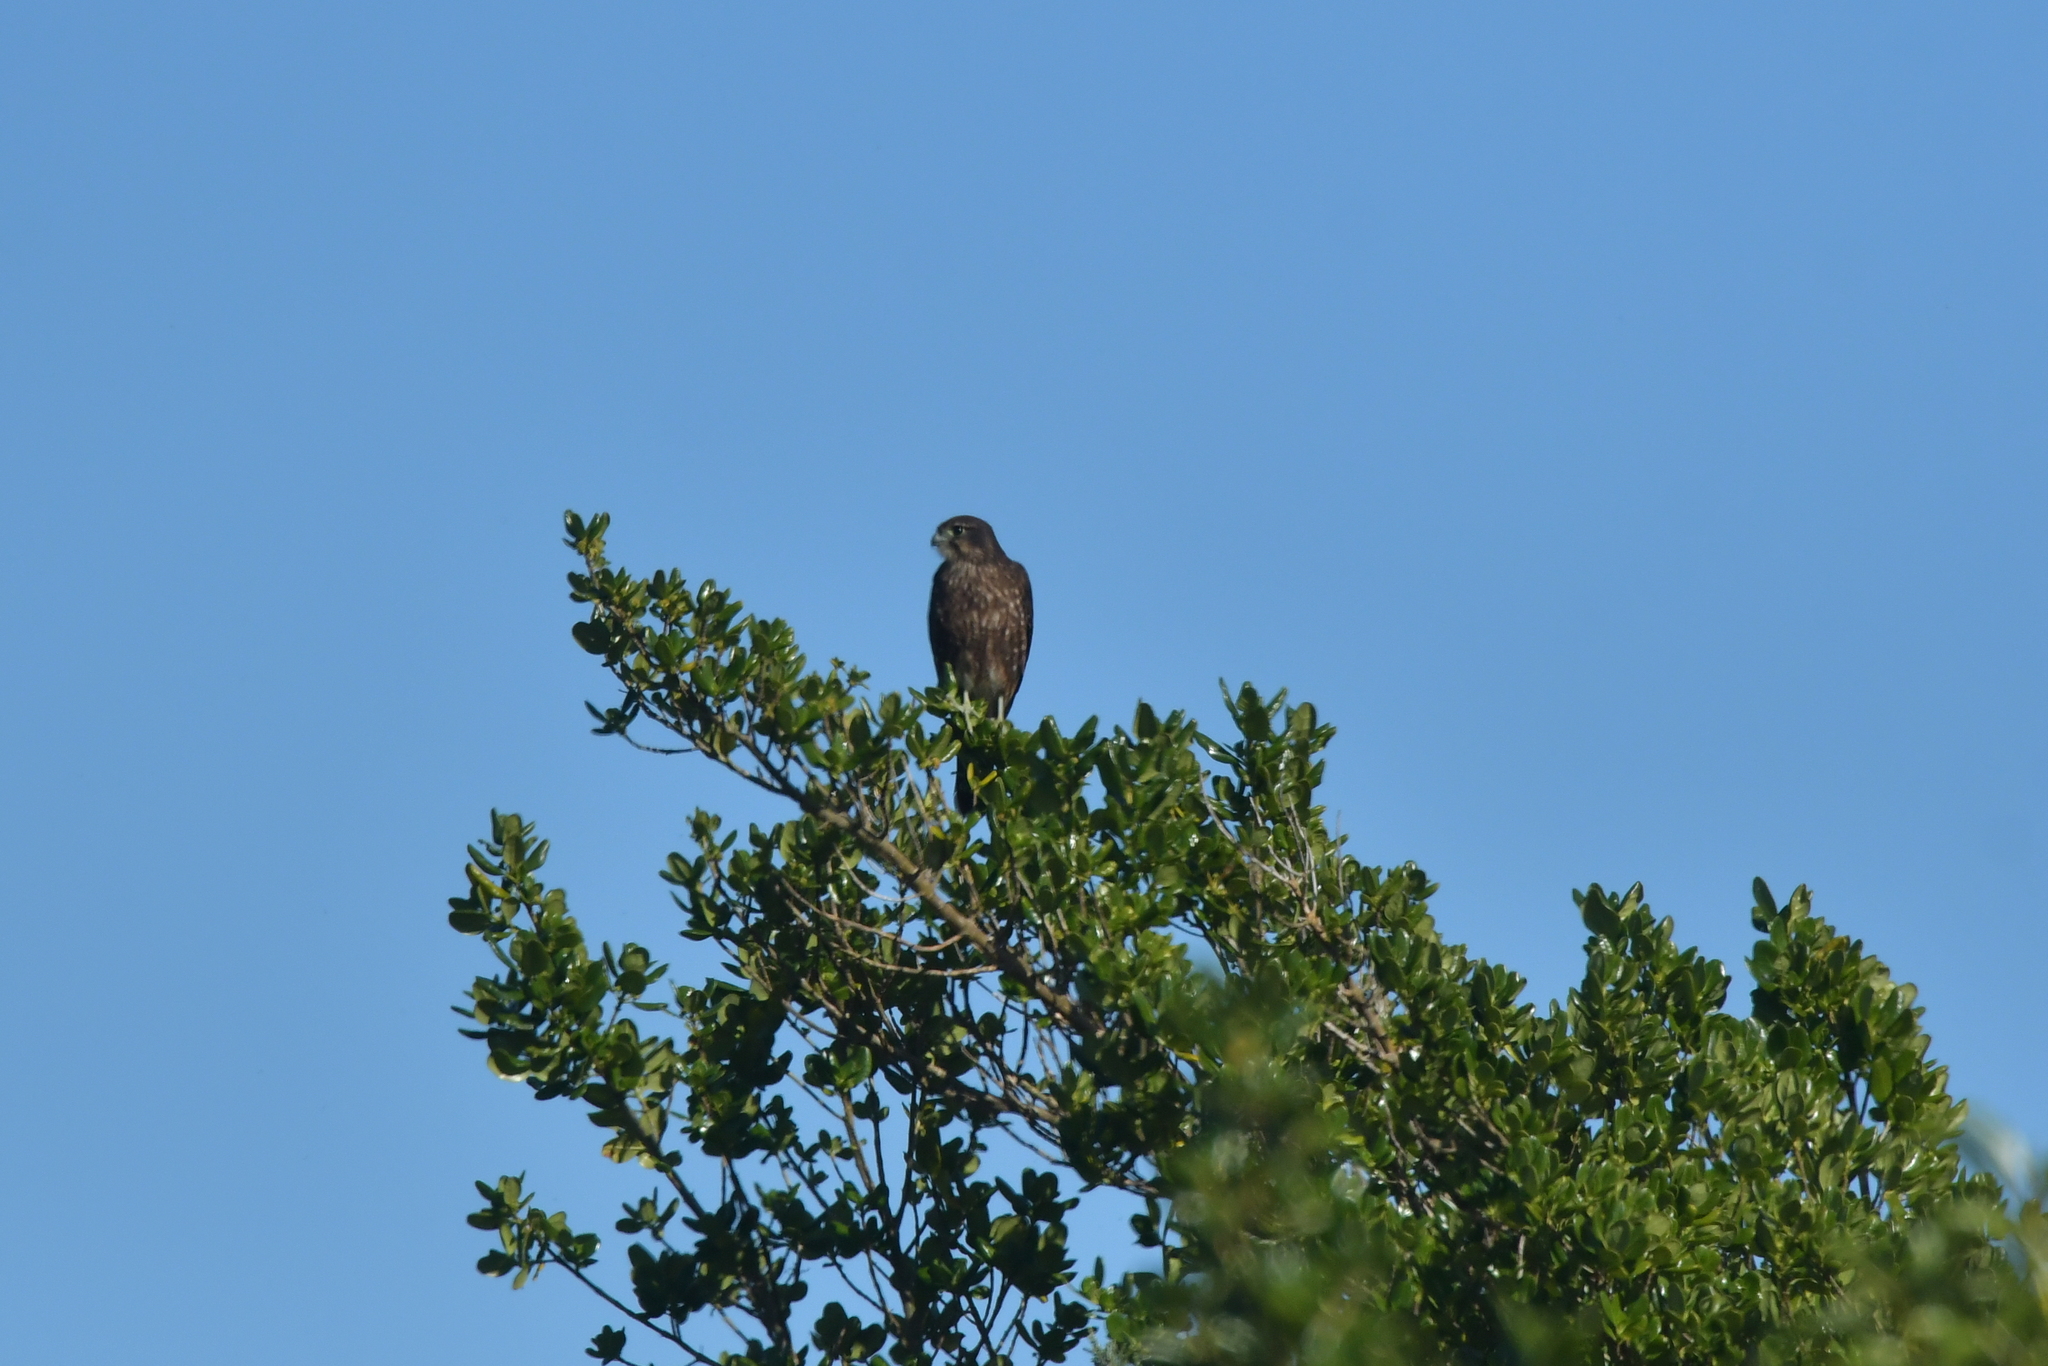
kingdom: Animalia
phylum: Chordata
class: Aves
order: Falconiformes
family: Falconidae
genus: Falco
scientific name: Falco novaeseelandiae
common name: New zealand falcon
